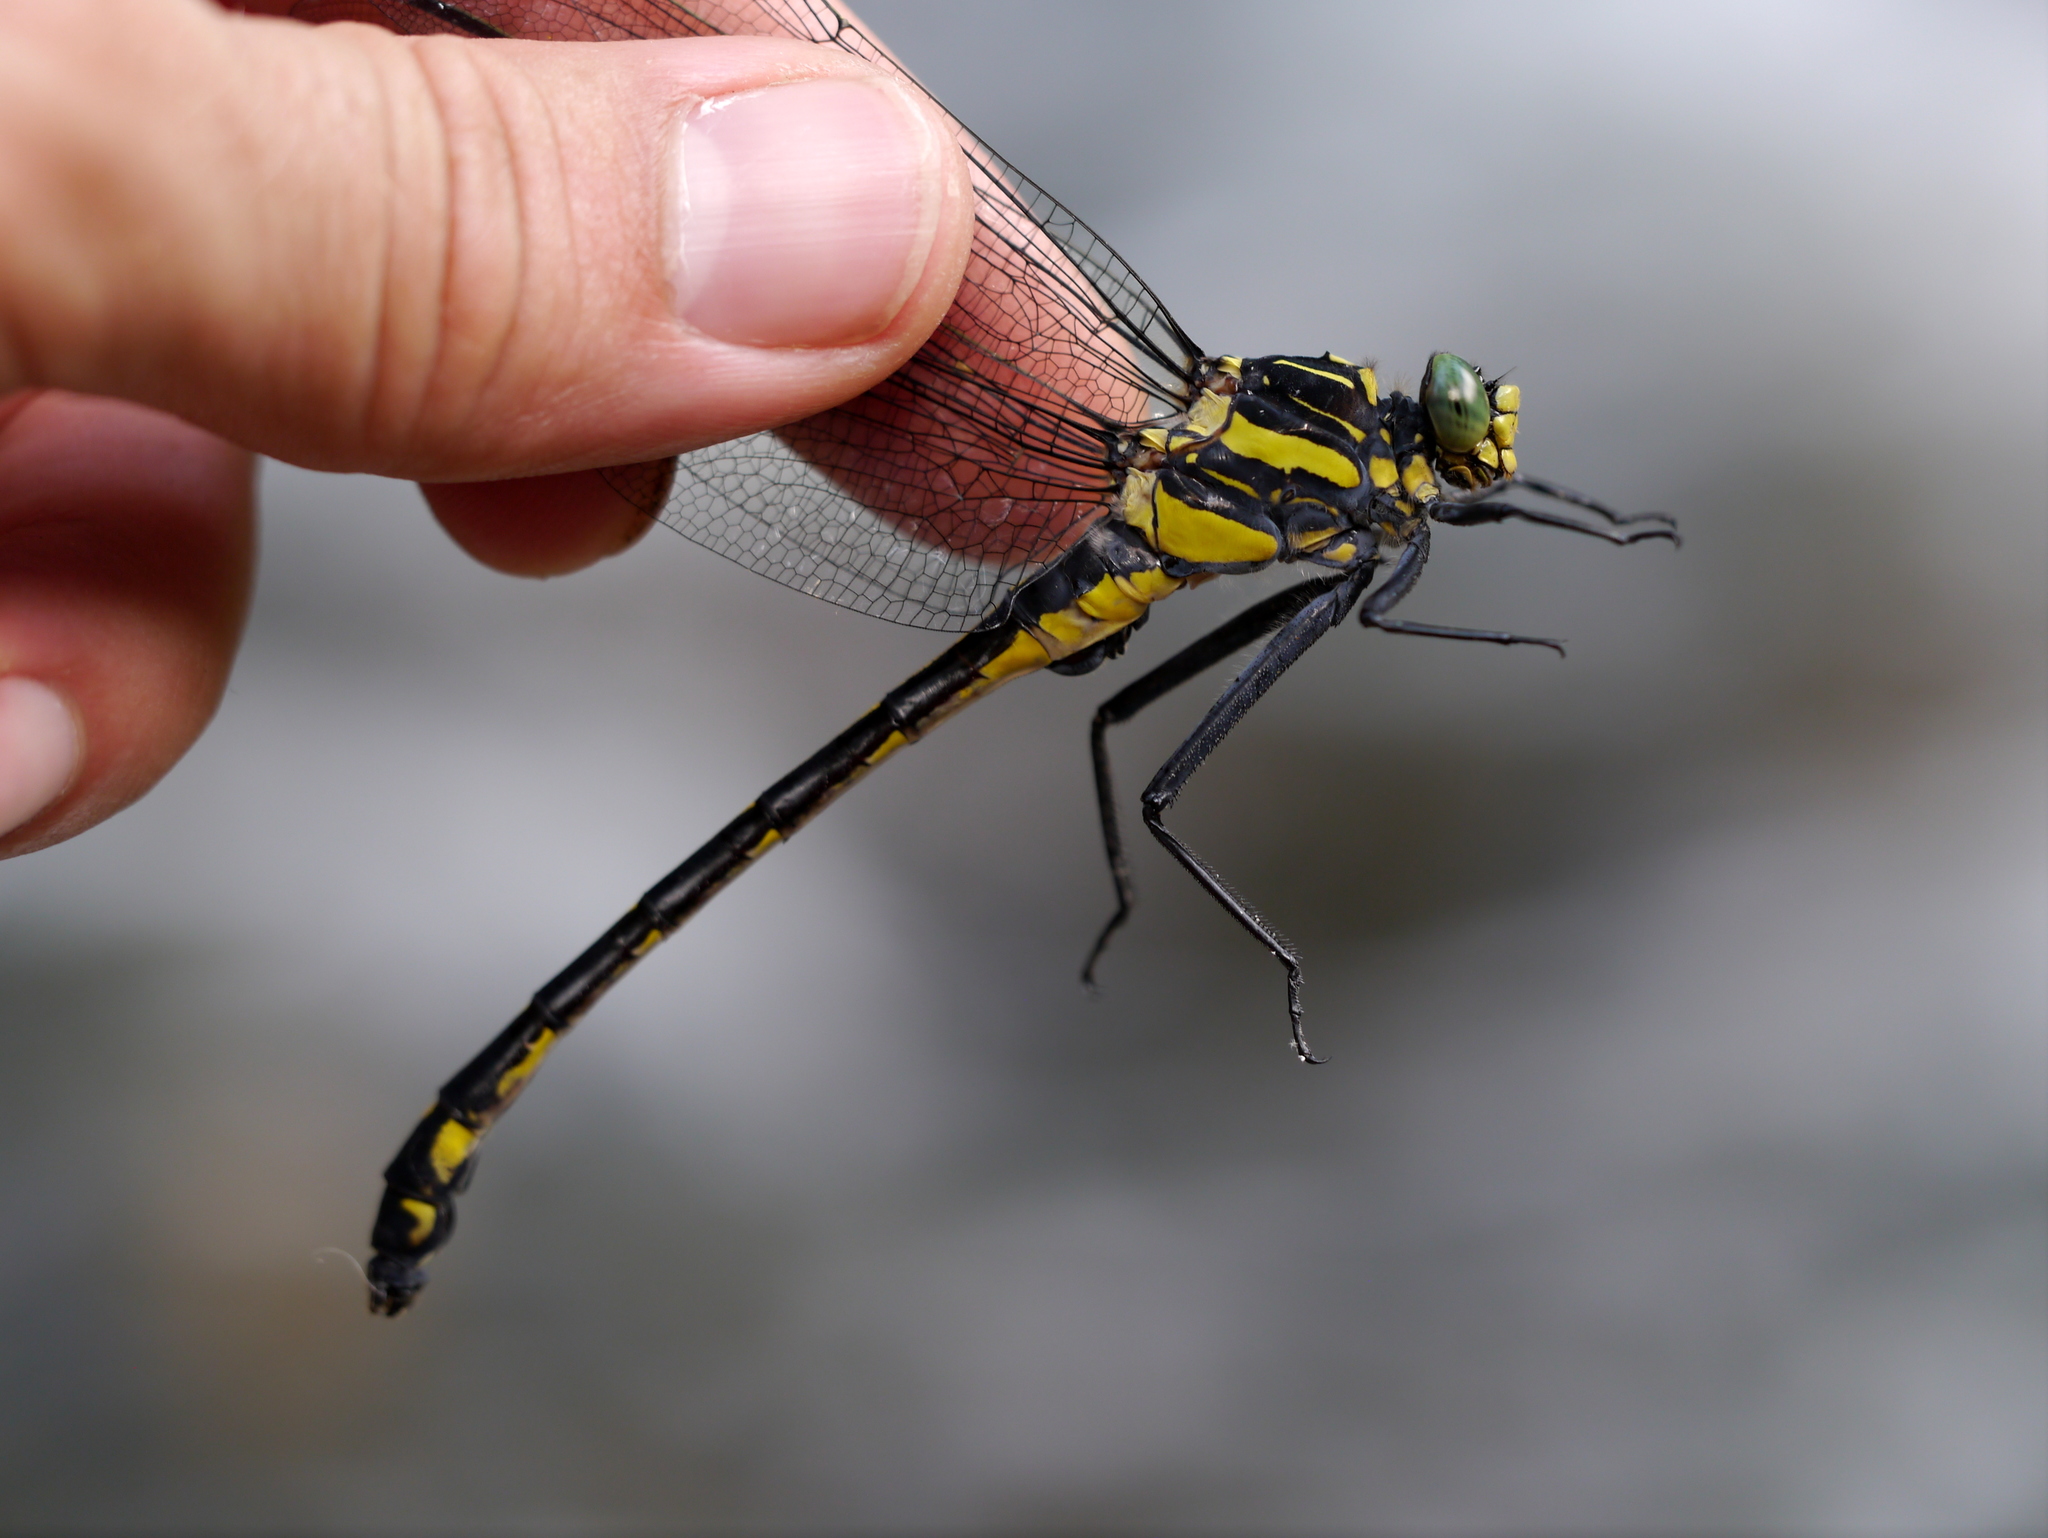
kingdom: Animalia
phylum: Arthropoda
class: Insecta
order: Odonata
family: Gomphidae
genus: Hagenius
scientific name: Hagenius brevistylus
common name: Dragonhunter
